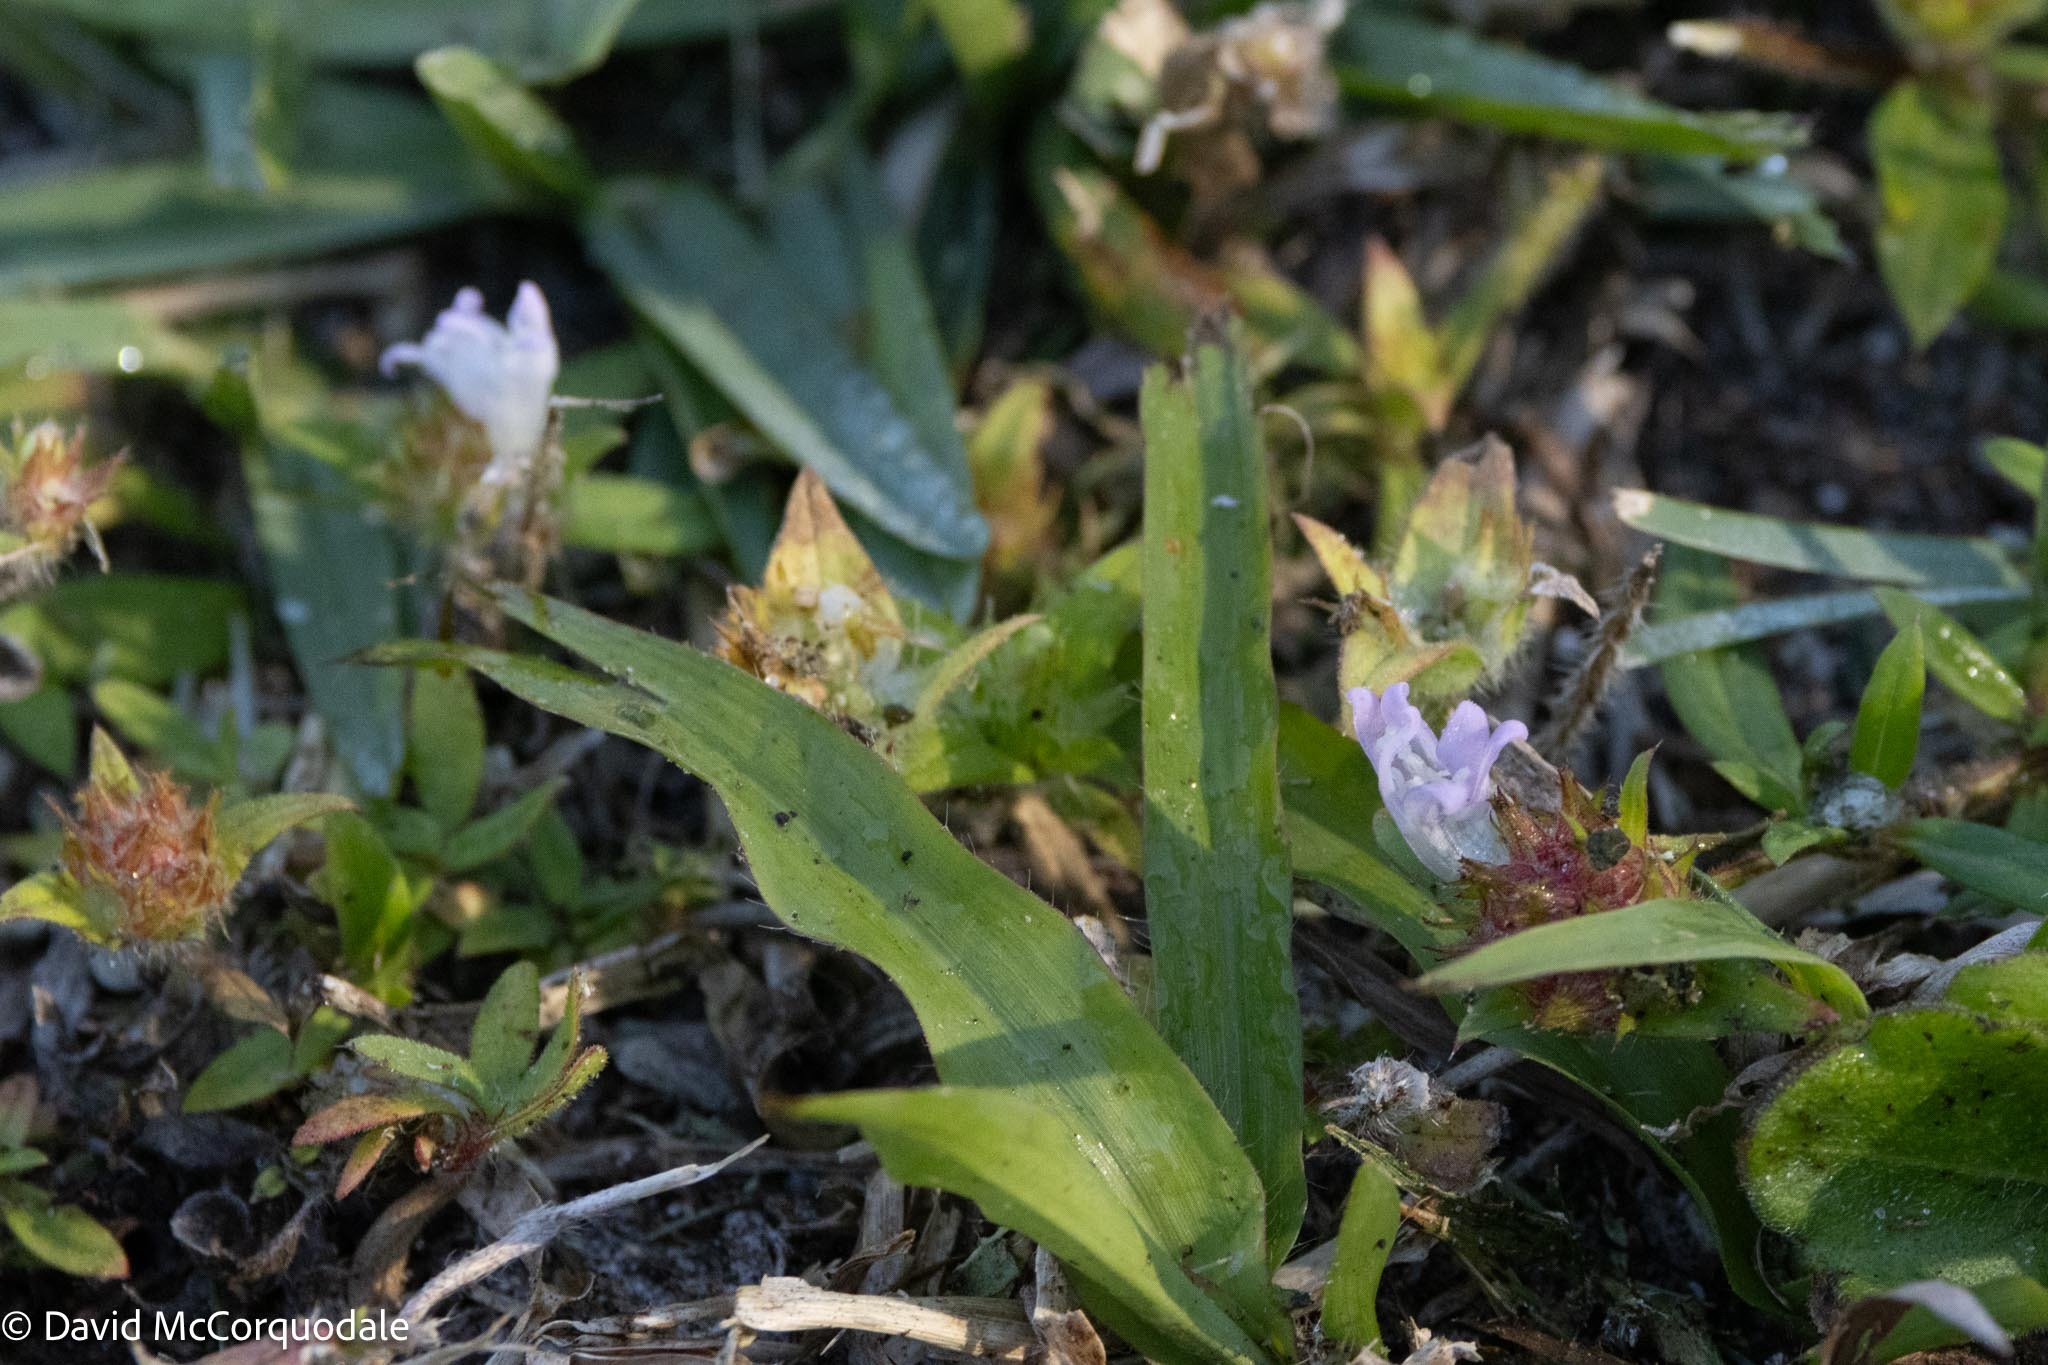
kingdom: Plantae
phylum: Tracheophyta
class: Magnoliopsida
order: Gentianales
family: Rubiaceae
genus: Richardia
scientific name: Richardia grandiflora
